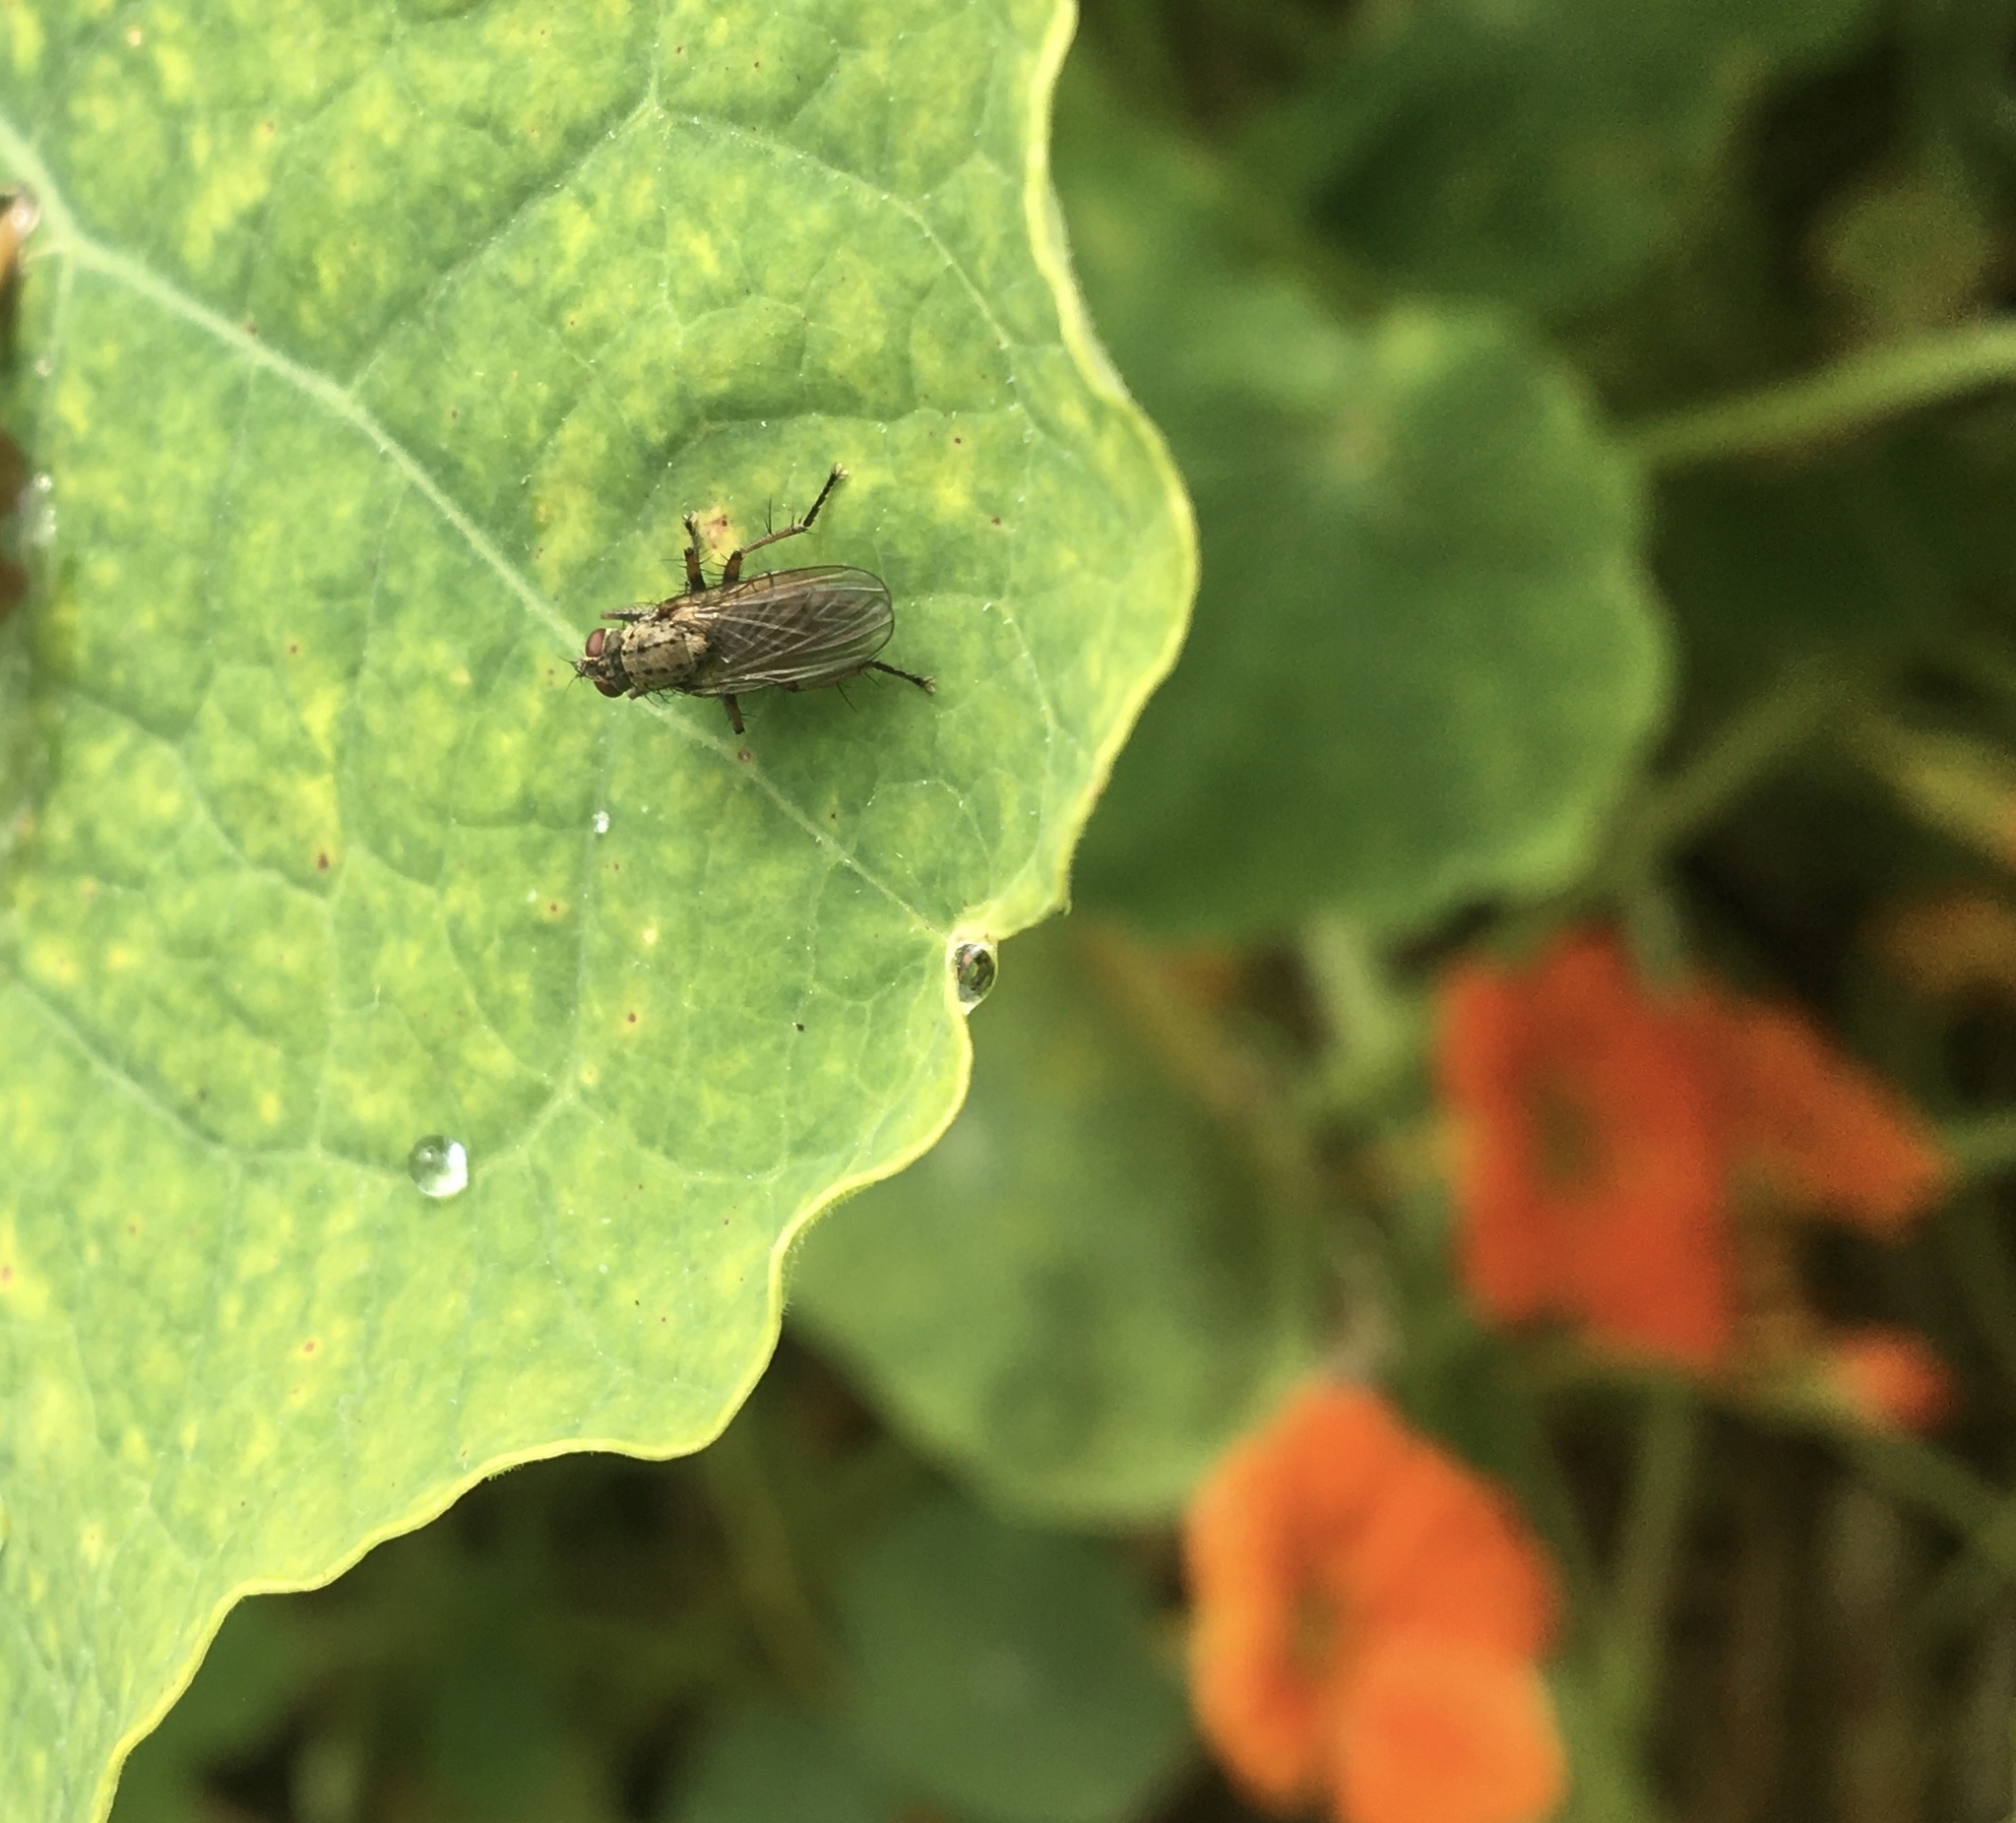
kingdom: Plantae
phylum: Tracheophyta
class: Magnoliopsida
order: Brassicales
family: Tropaeolaceae
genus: Tropaeolum
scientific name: Tropaeolum majus
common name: Nasturtium
